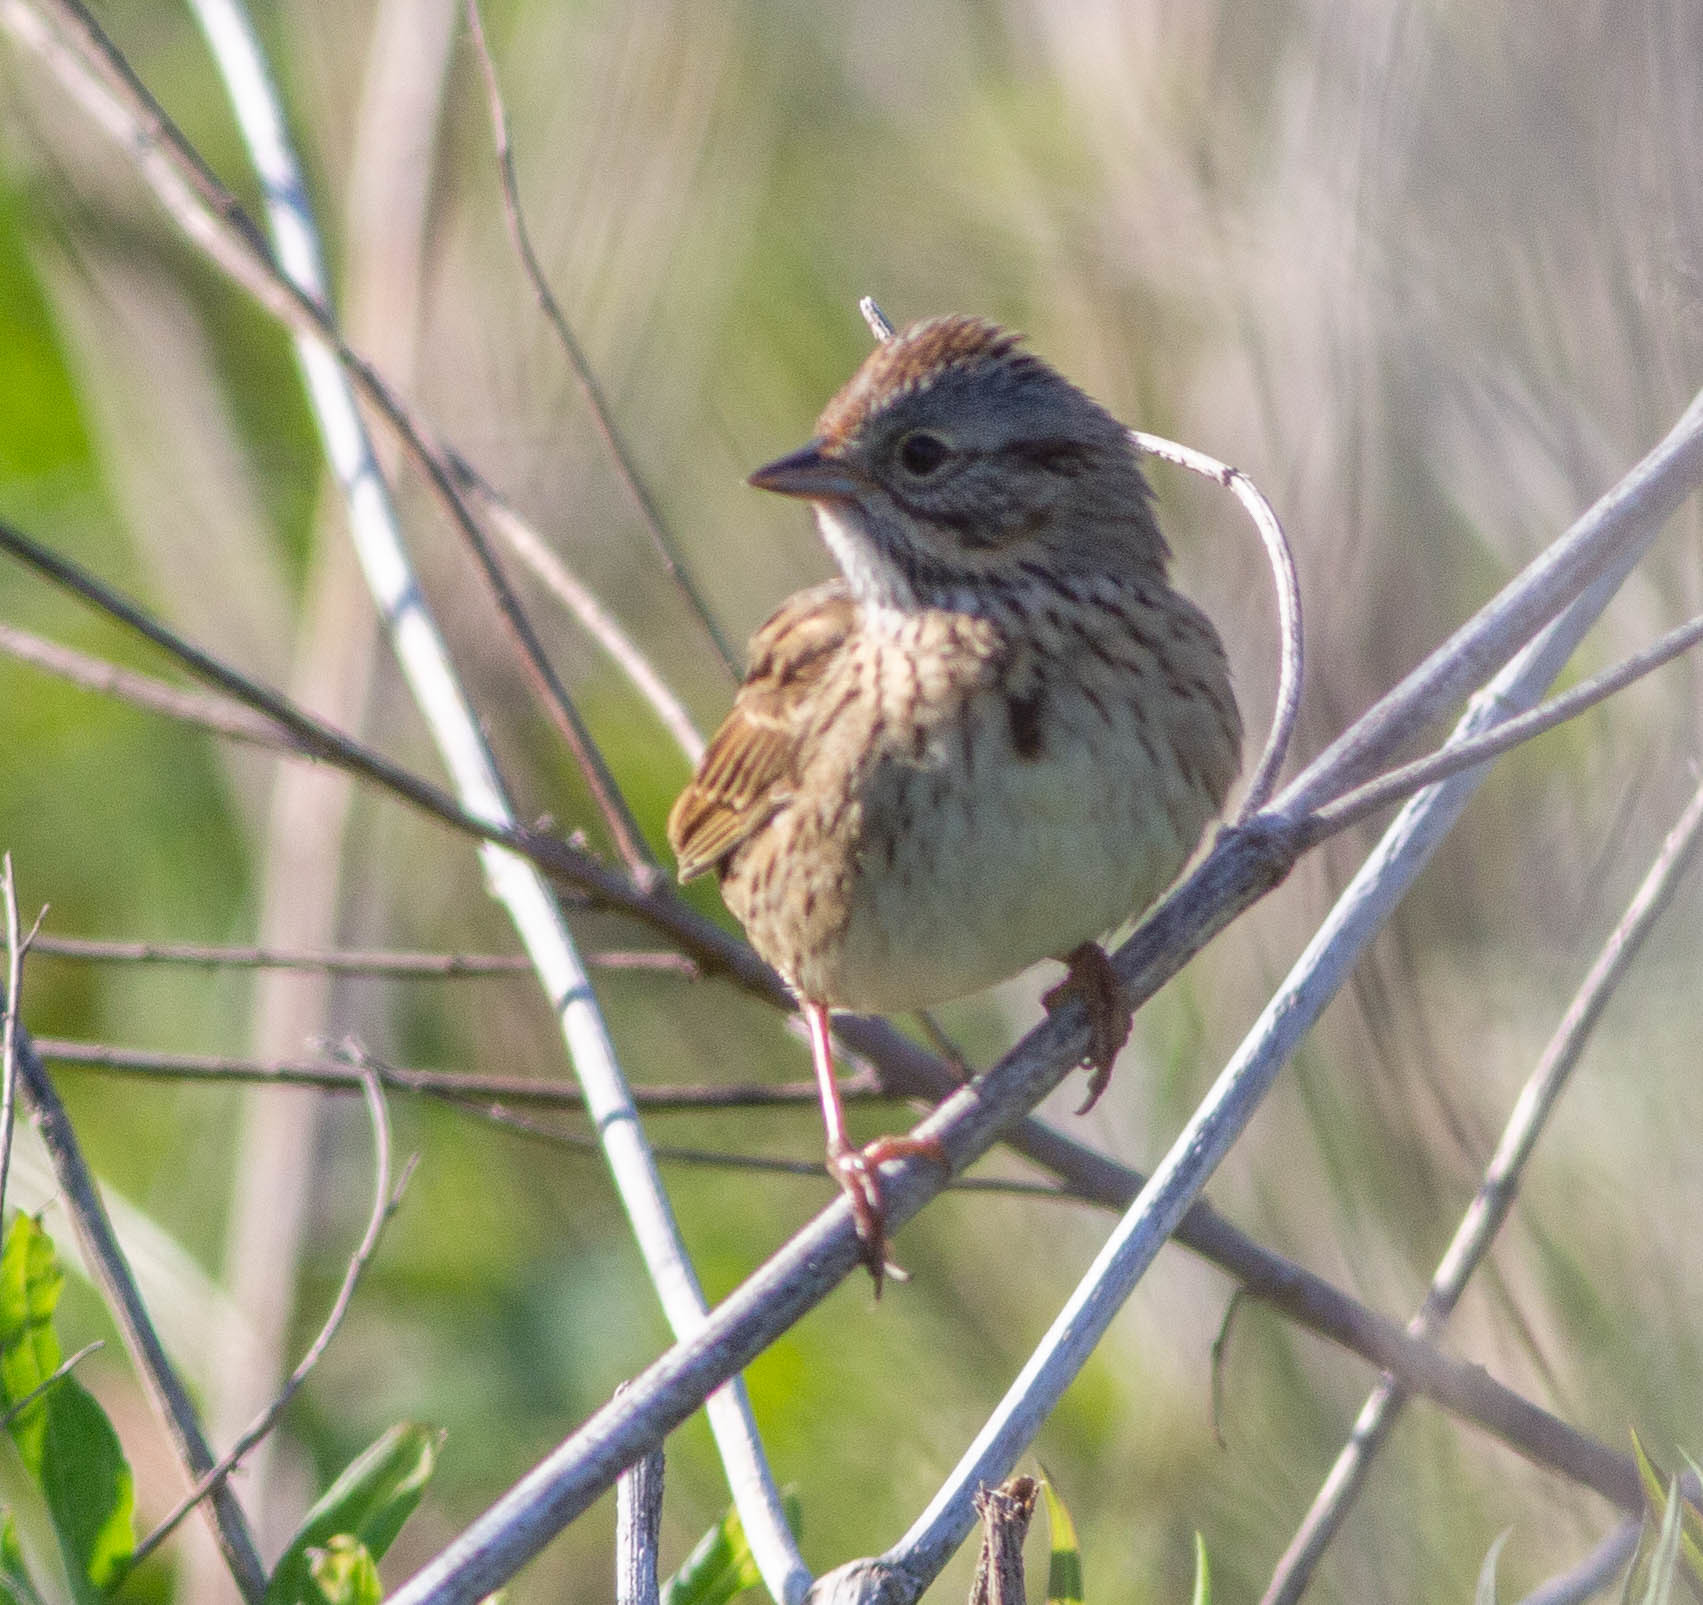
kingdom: Animalia
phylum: Chordata
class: Aves
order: Passeriformes
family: Passerellidae
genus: Melospiza
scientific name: Melospiza lincolnii
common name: Lincoln's sparrow
